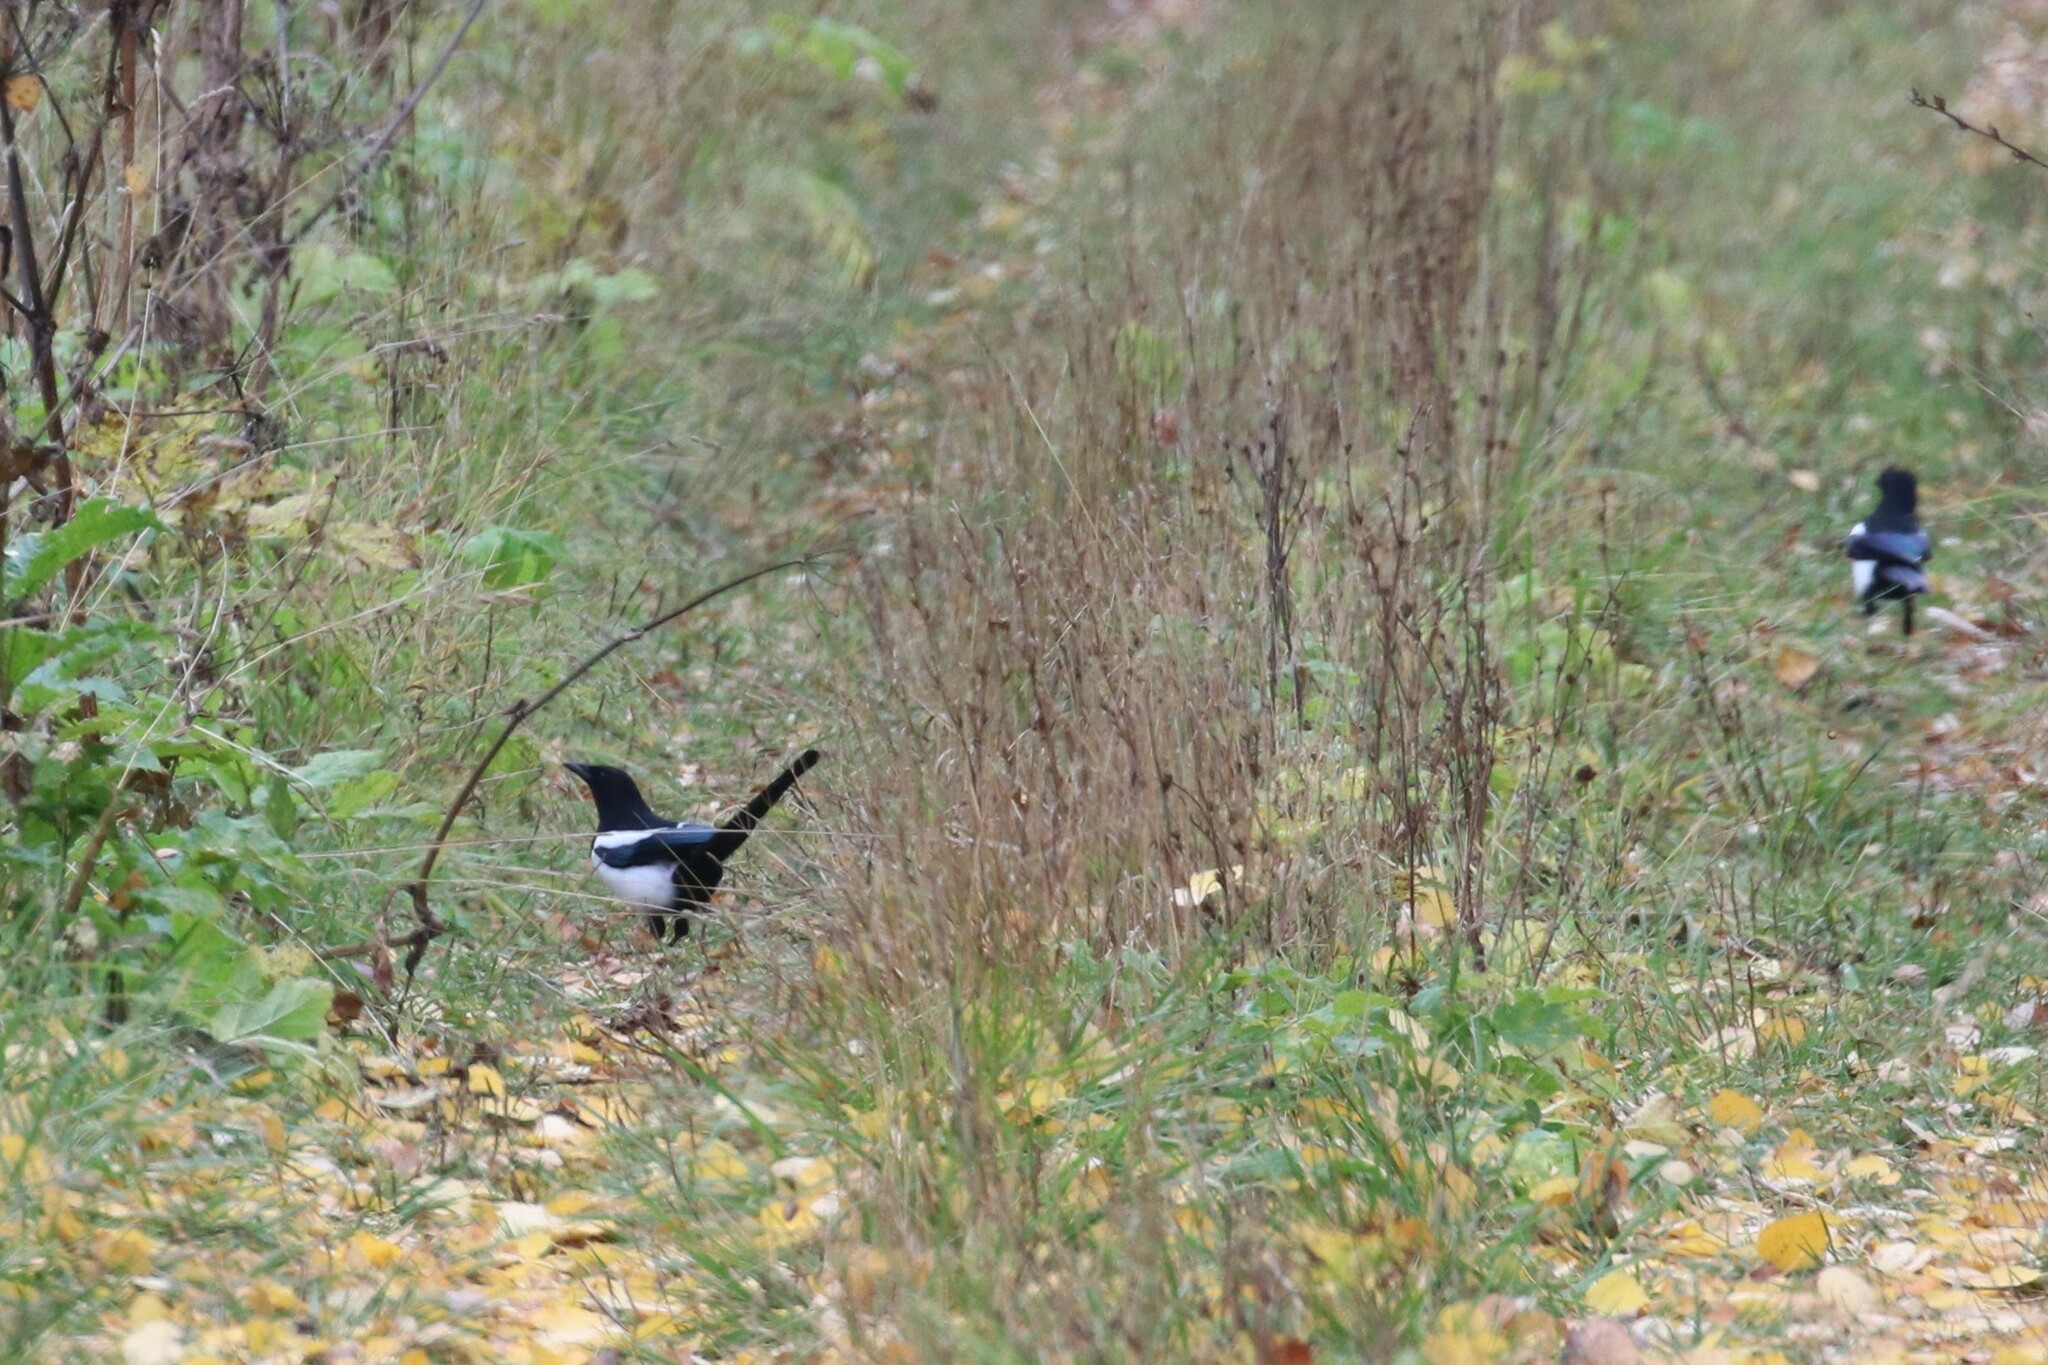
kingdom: Animalia
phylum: Chordata
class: Aves
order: Passeriformes
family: Corvidae
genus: Pica
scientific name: Pica pica
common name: Eurasian magpie
